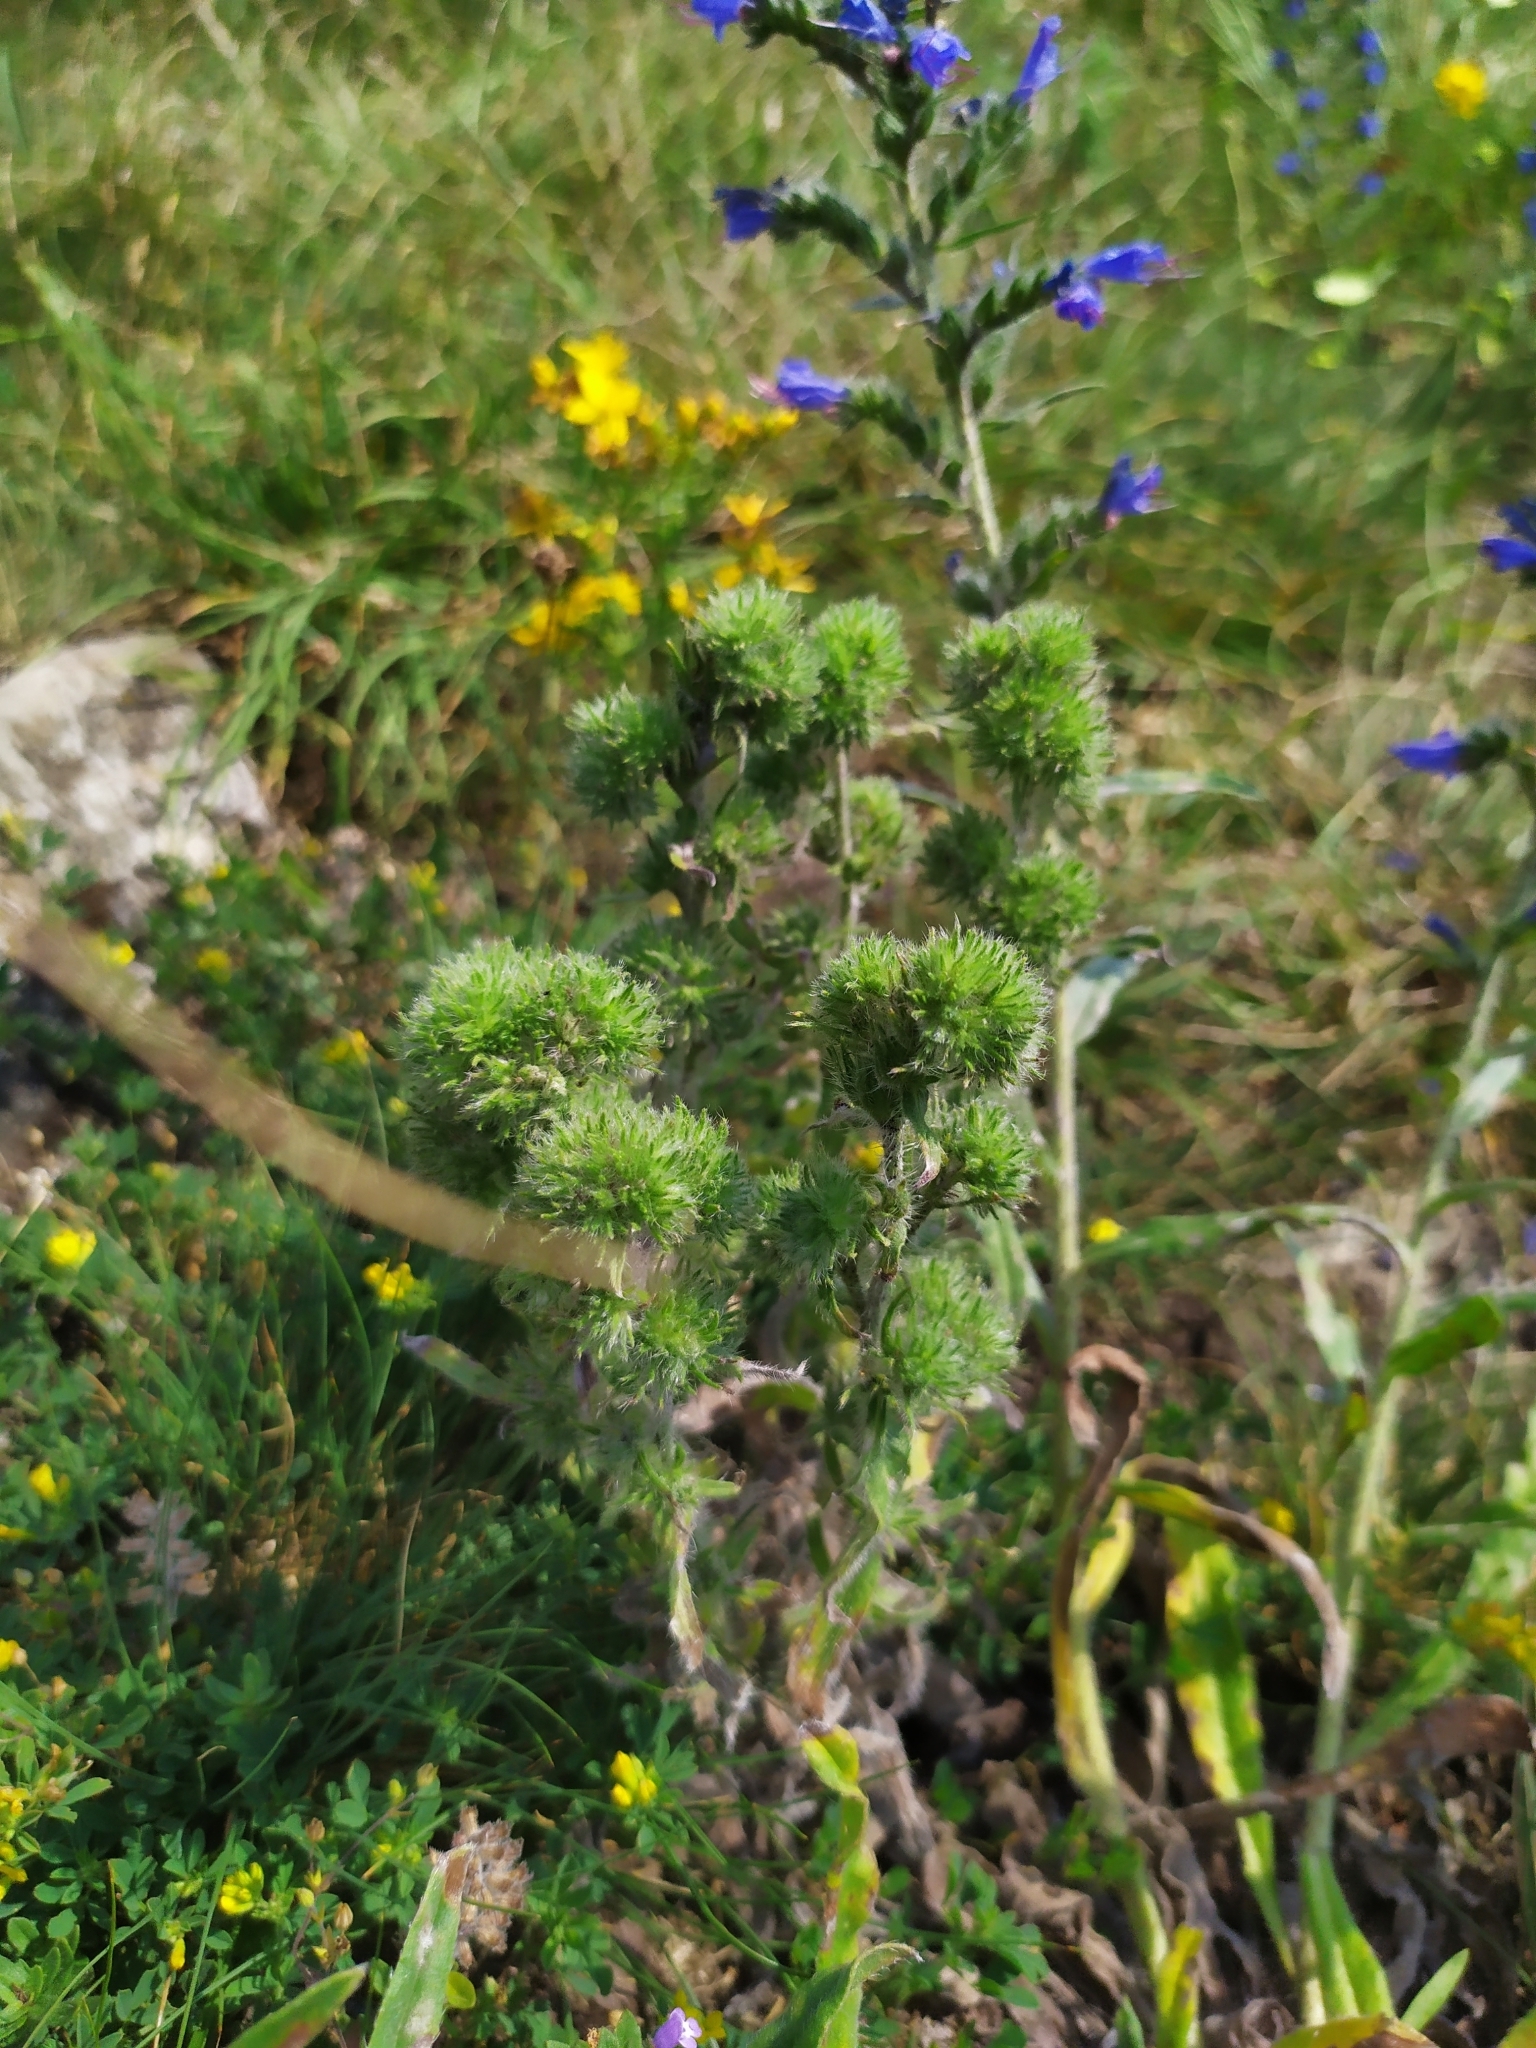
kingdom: Animalia
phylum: Arthropoda
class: Arachnida
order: Trombidiformes
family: Eriophyidae
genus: Aceria
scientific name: Aceria echii
